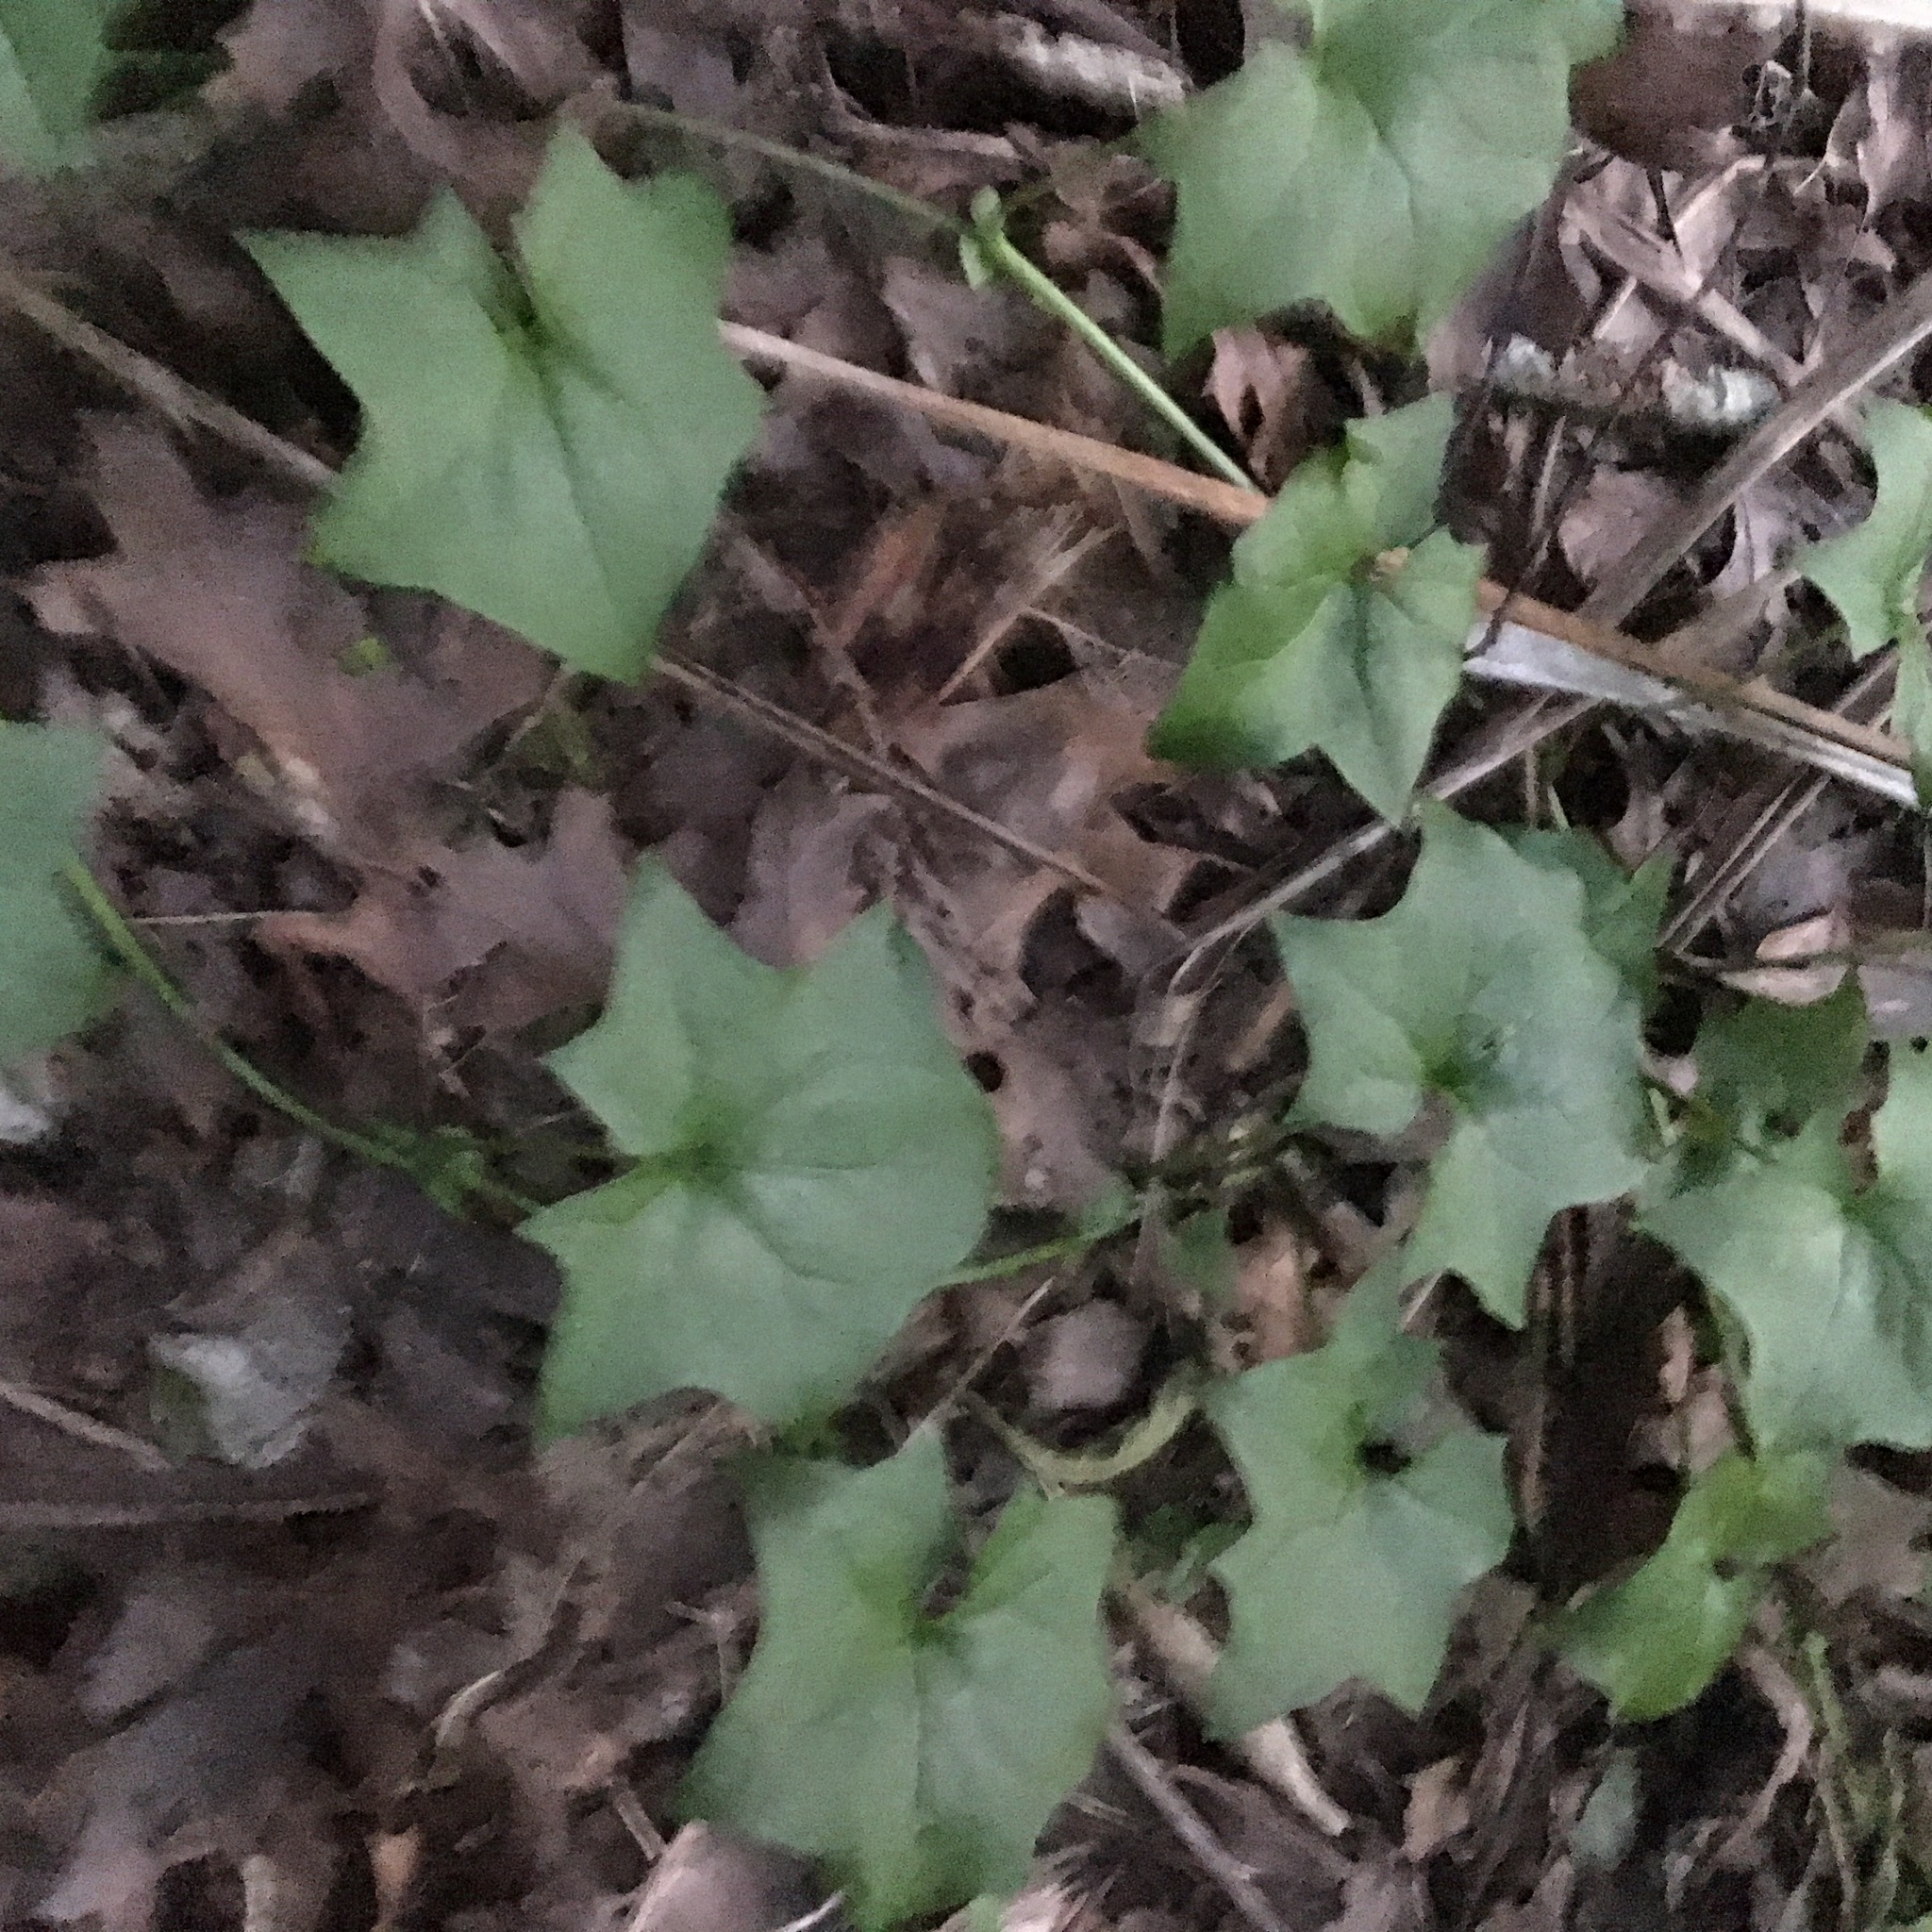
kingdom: Plantae
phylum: Tracheophyta
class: Magnoliopsida
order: Asterales
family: Asteraceae
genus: Delairea
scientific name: Delairea odorata
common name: Cape-ivy
